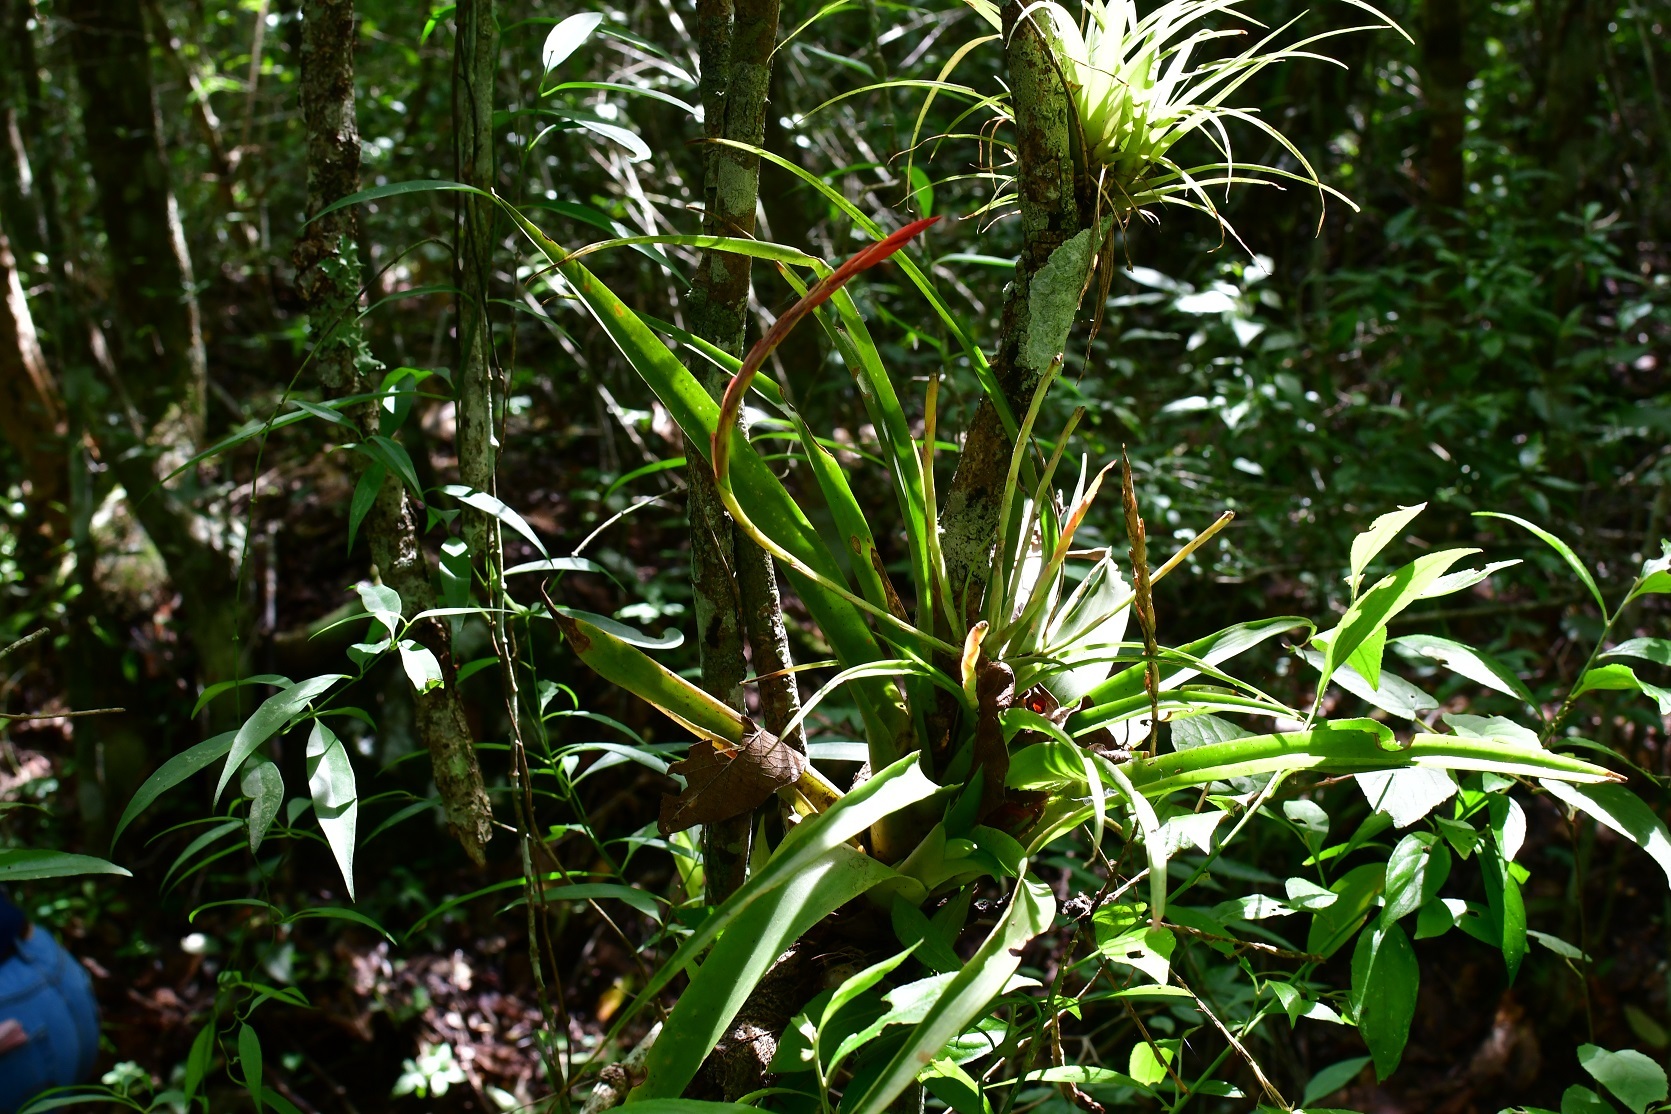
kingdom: Plantae
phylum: Tracheophyta
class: Liliopsida
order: Poales
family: Bromeliaceae
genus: Tillandsia
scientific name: Tillandsia flabellata
